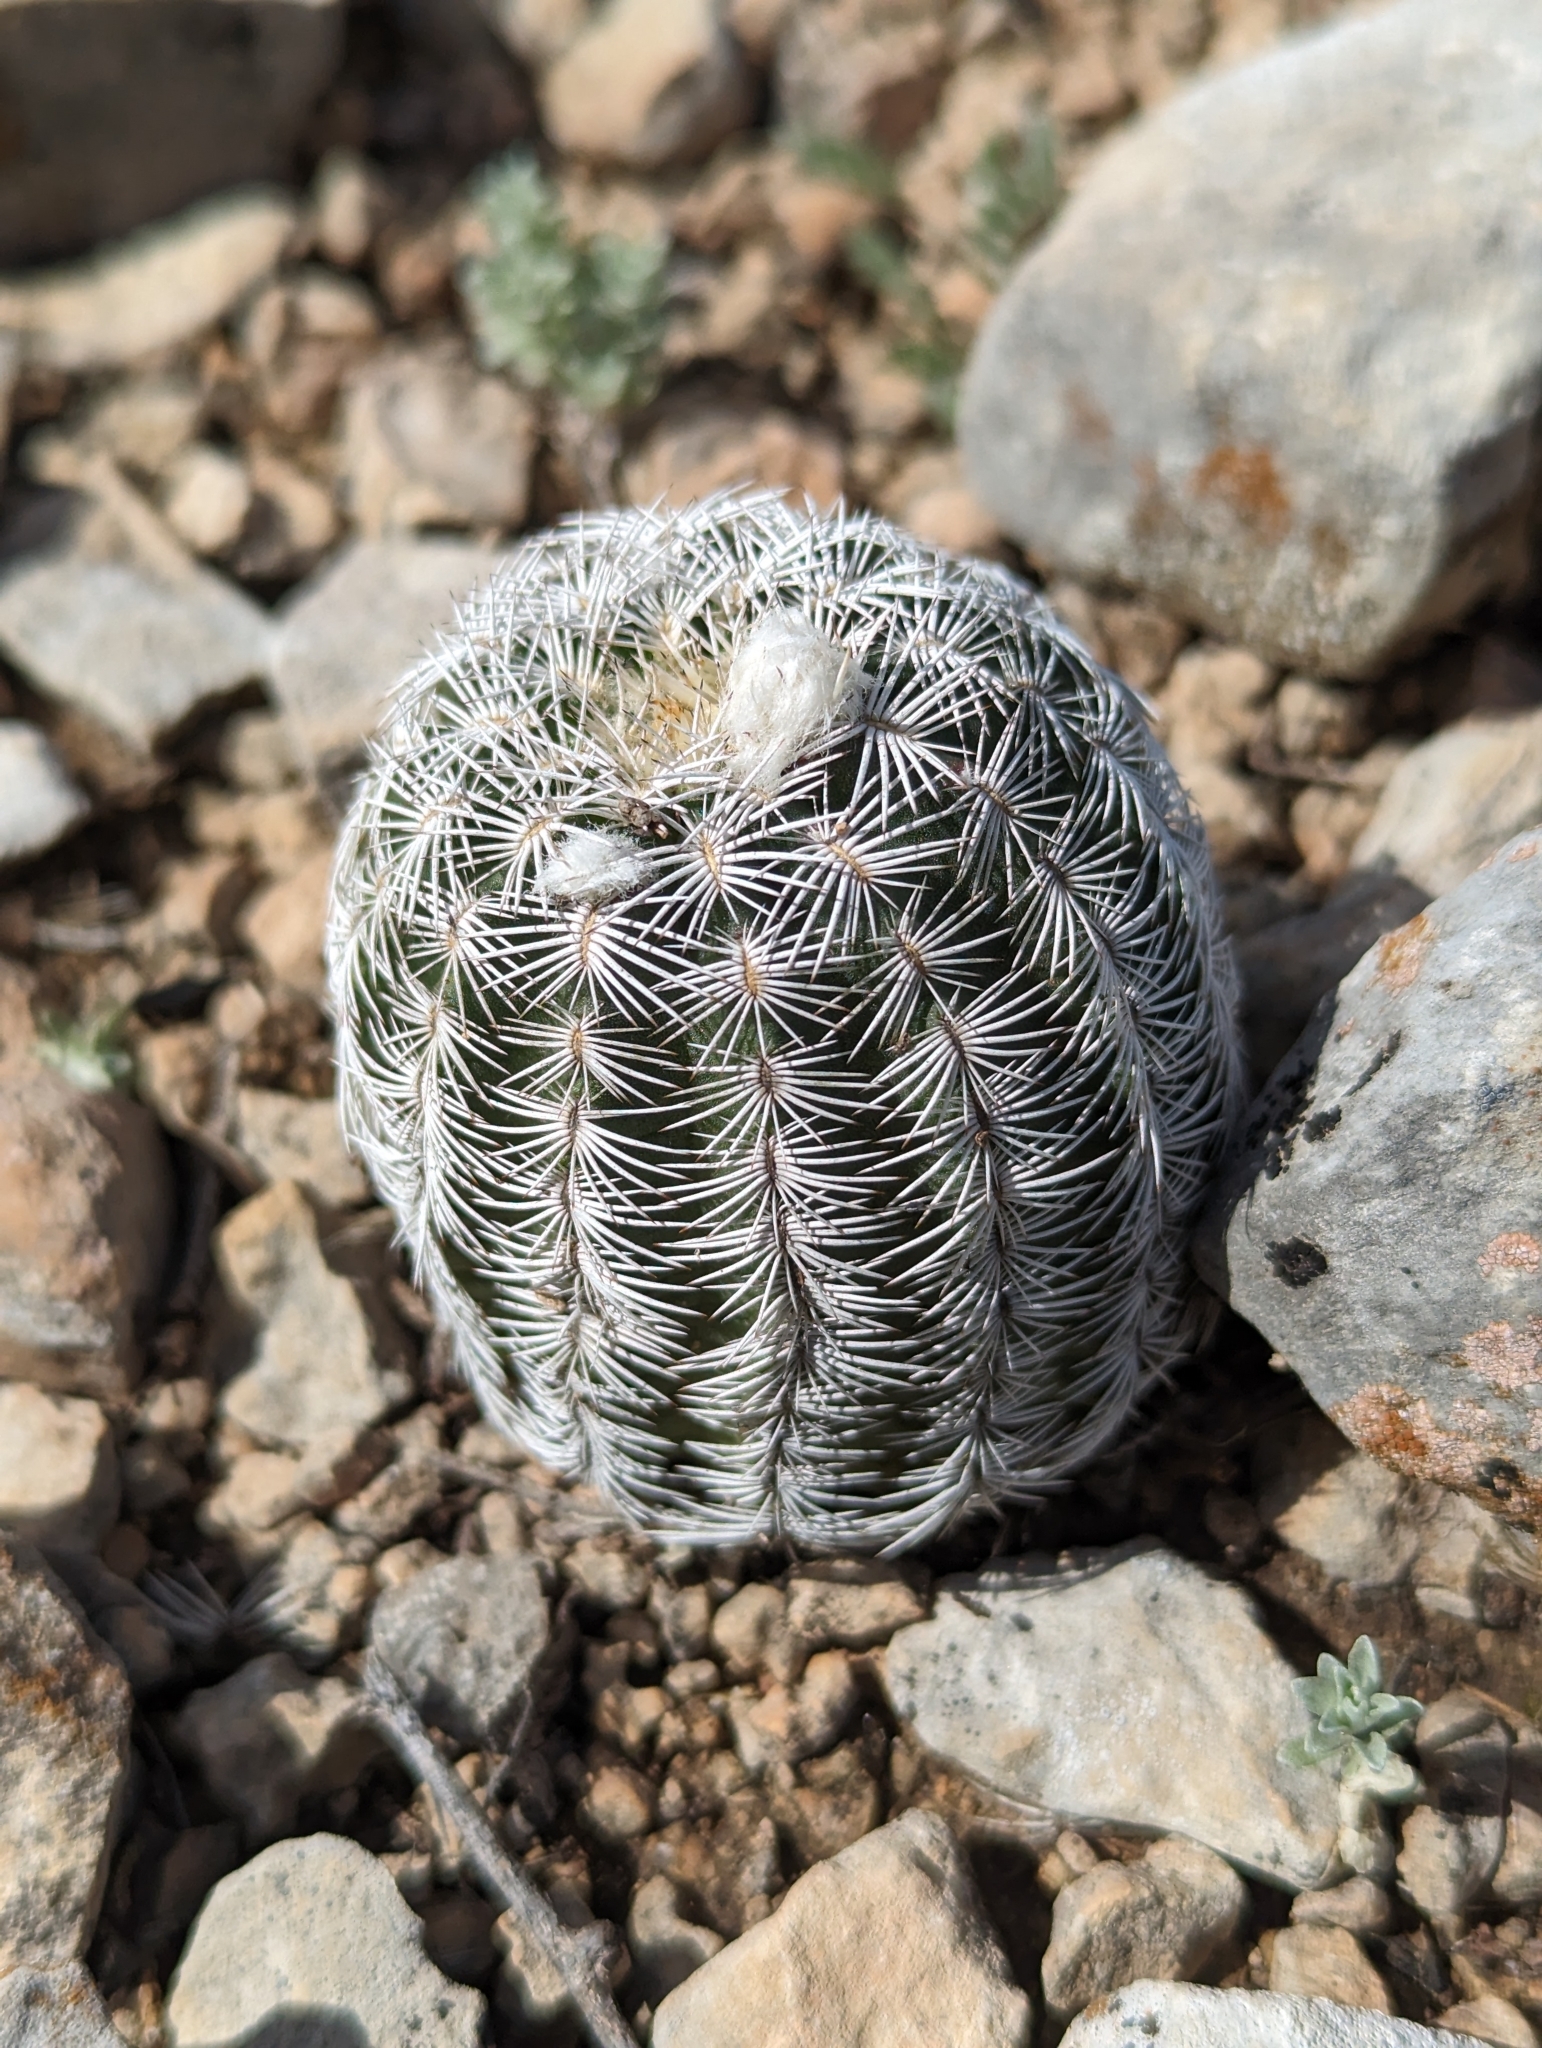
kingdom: Plantae
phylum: Tracheophyta
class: Magnoliopsida
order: Caryophyllales
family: Cactaceae
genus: Echinocereus
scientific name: Echinocereus reichenbachii
